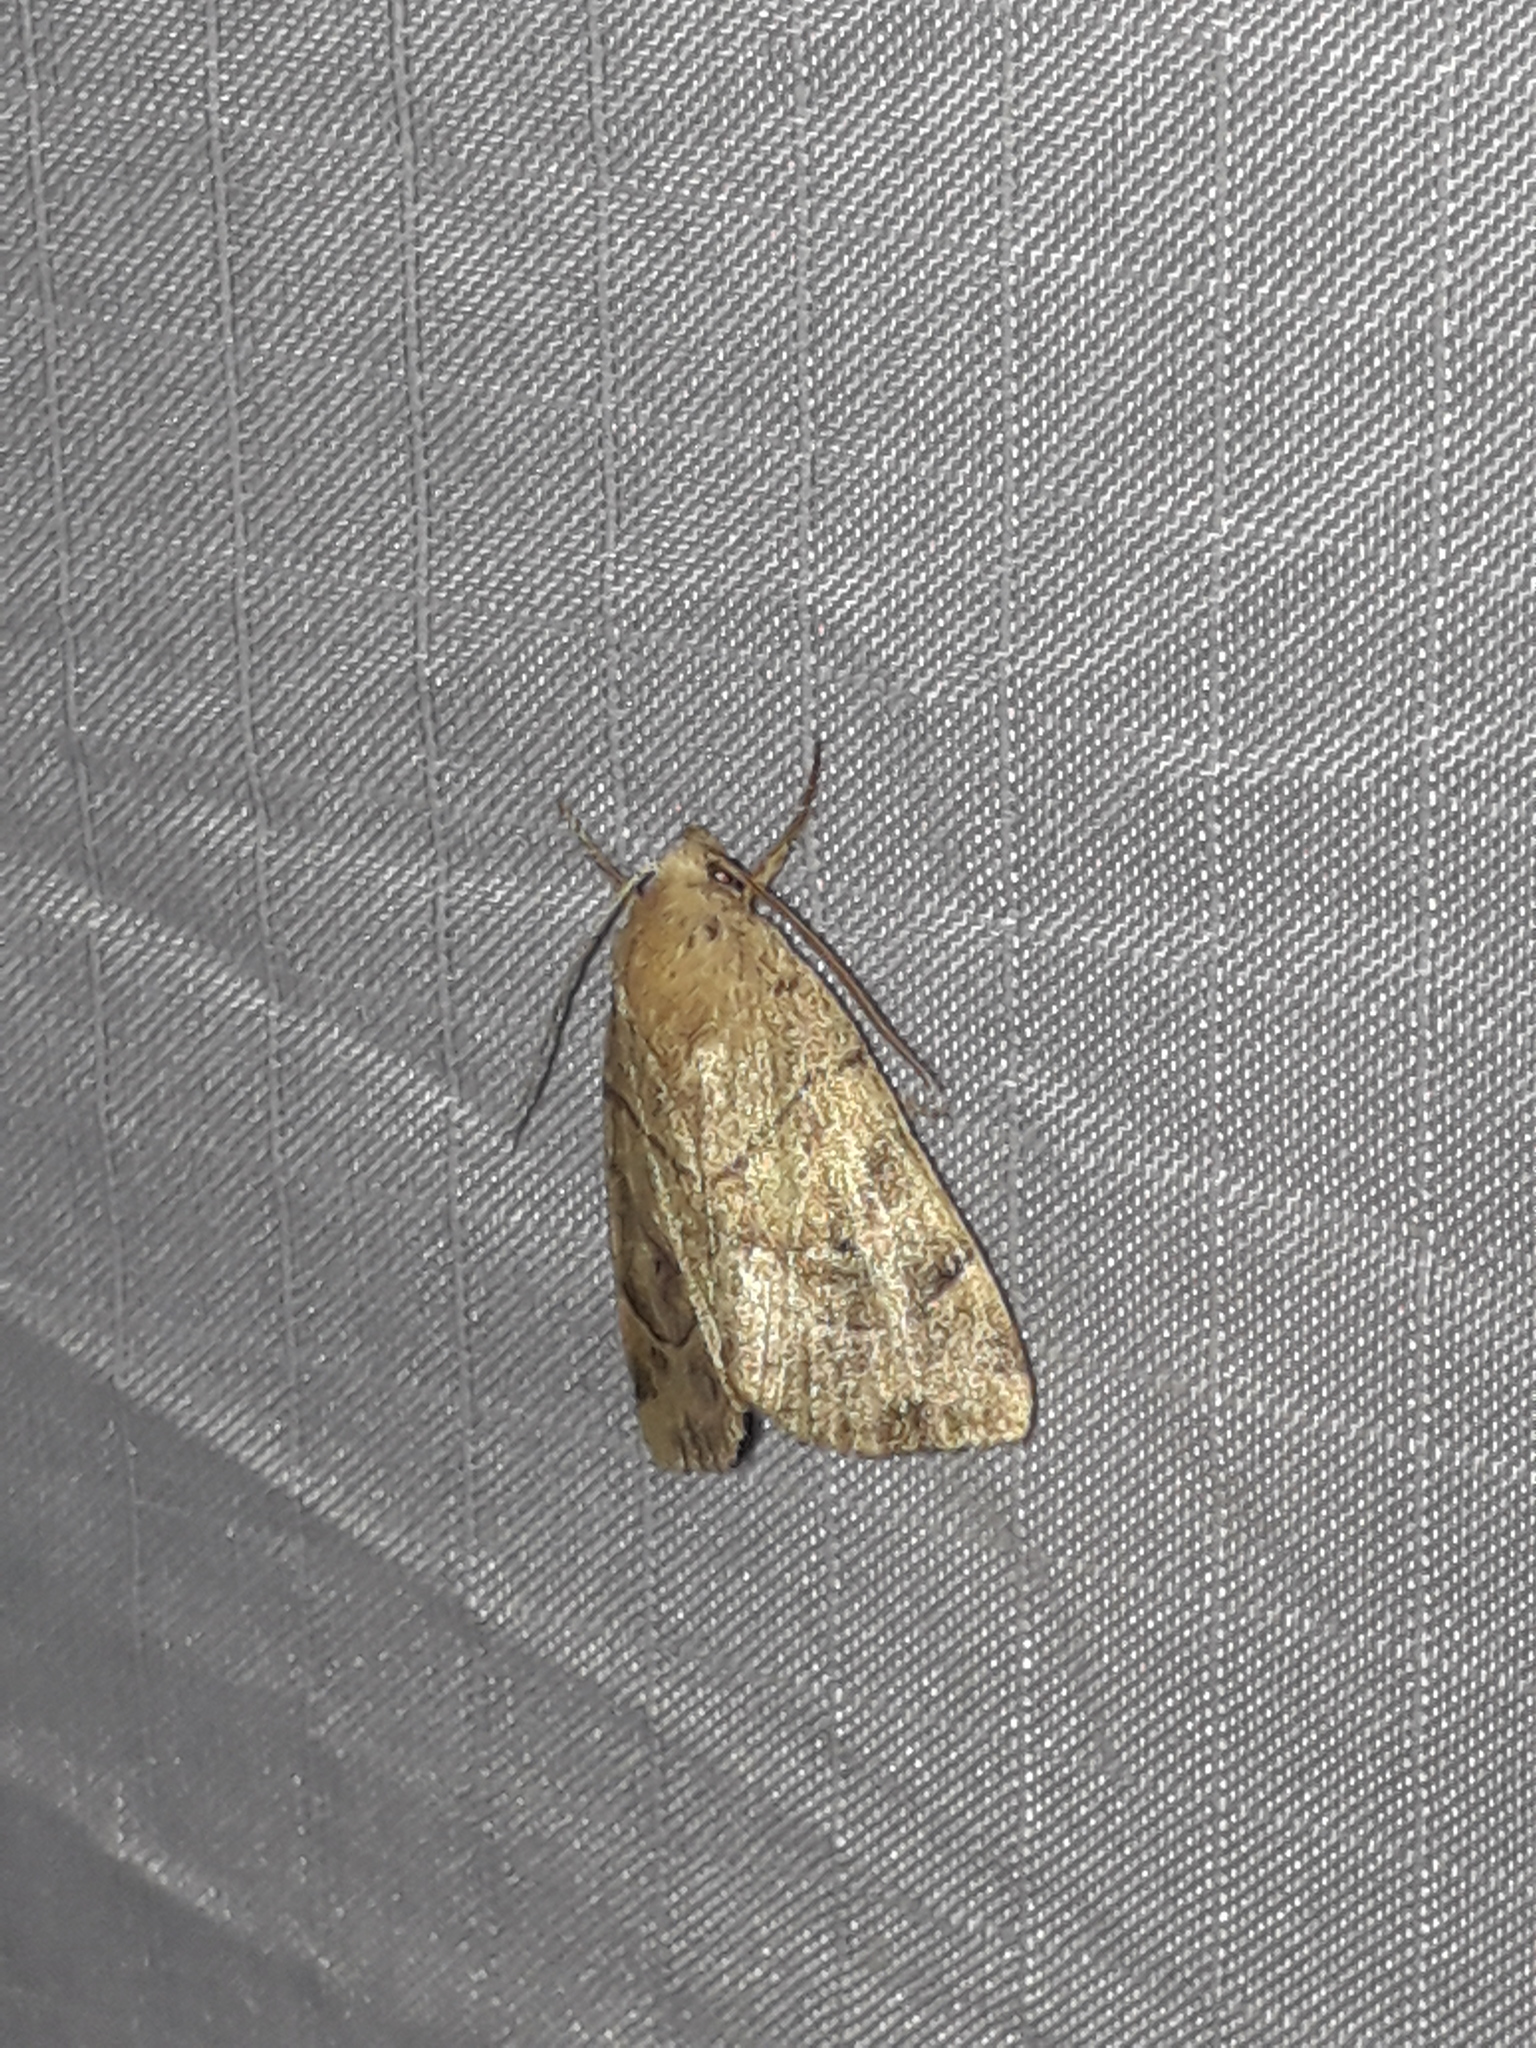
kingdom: Animalia
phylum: Arthropoda
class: Insecta
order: Lepidoptera
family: Noctuidae
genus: Cosmia
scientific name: Cosmia trapezina
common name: Dun-bar
